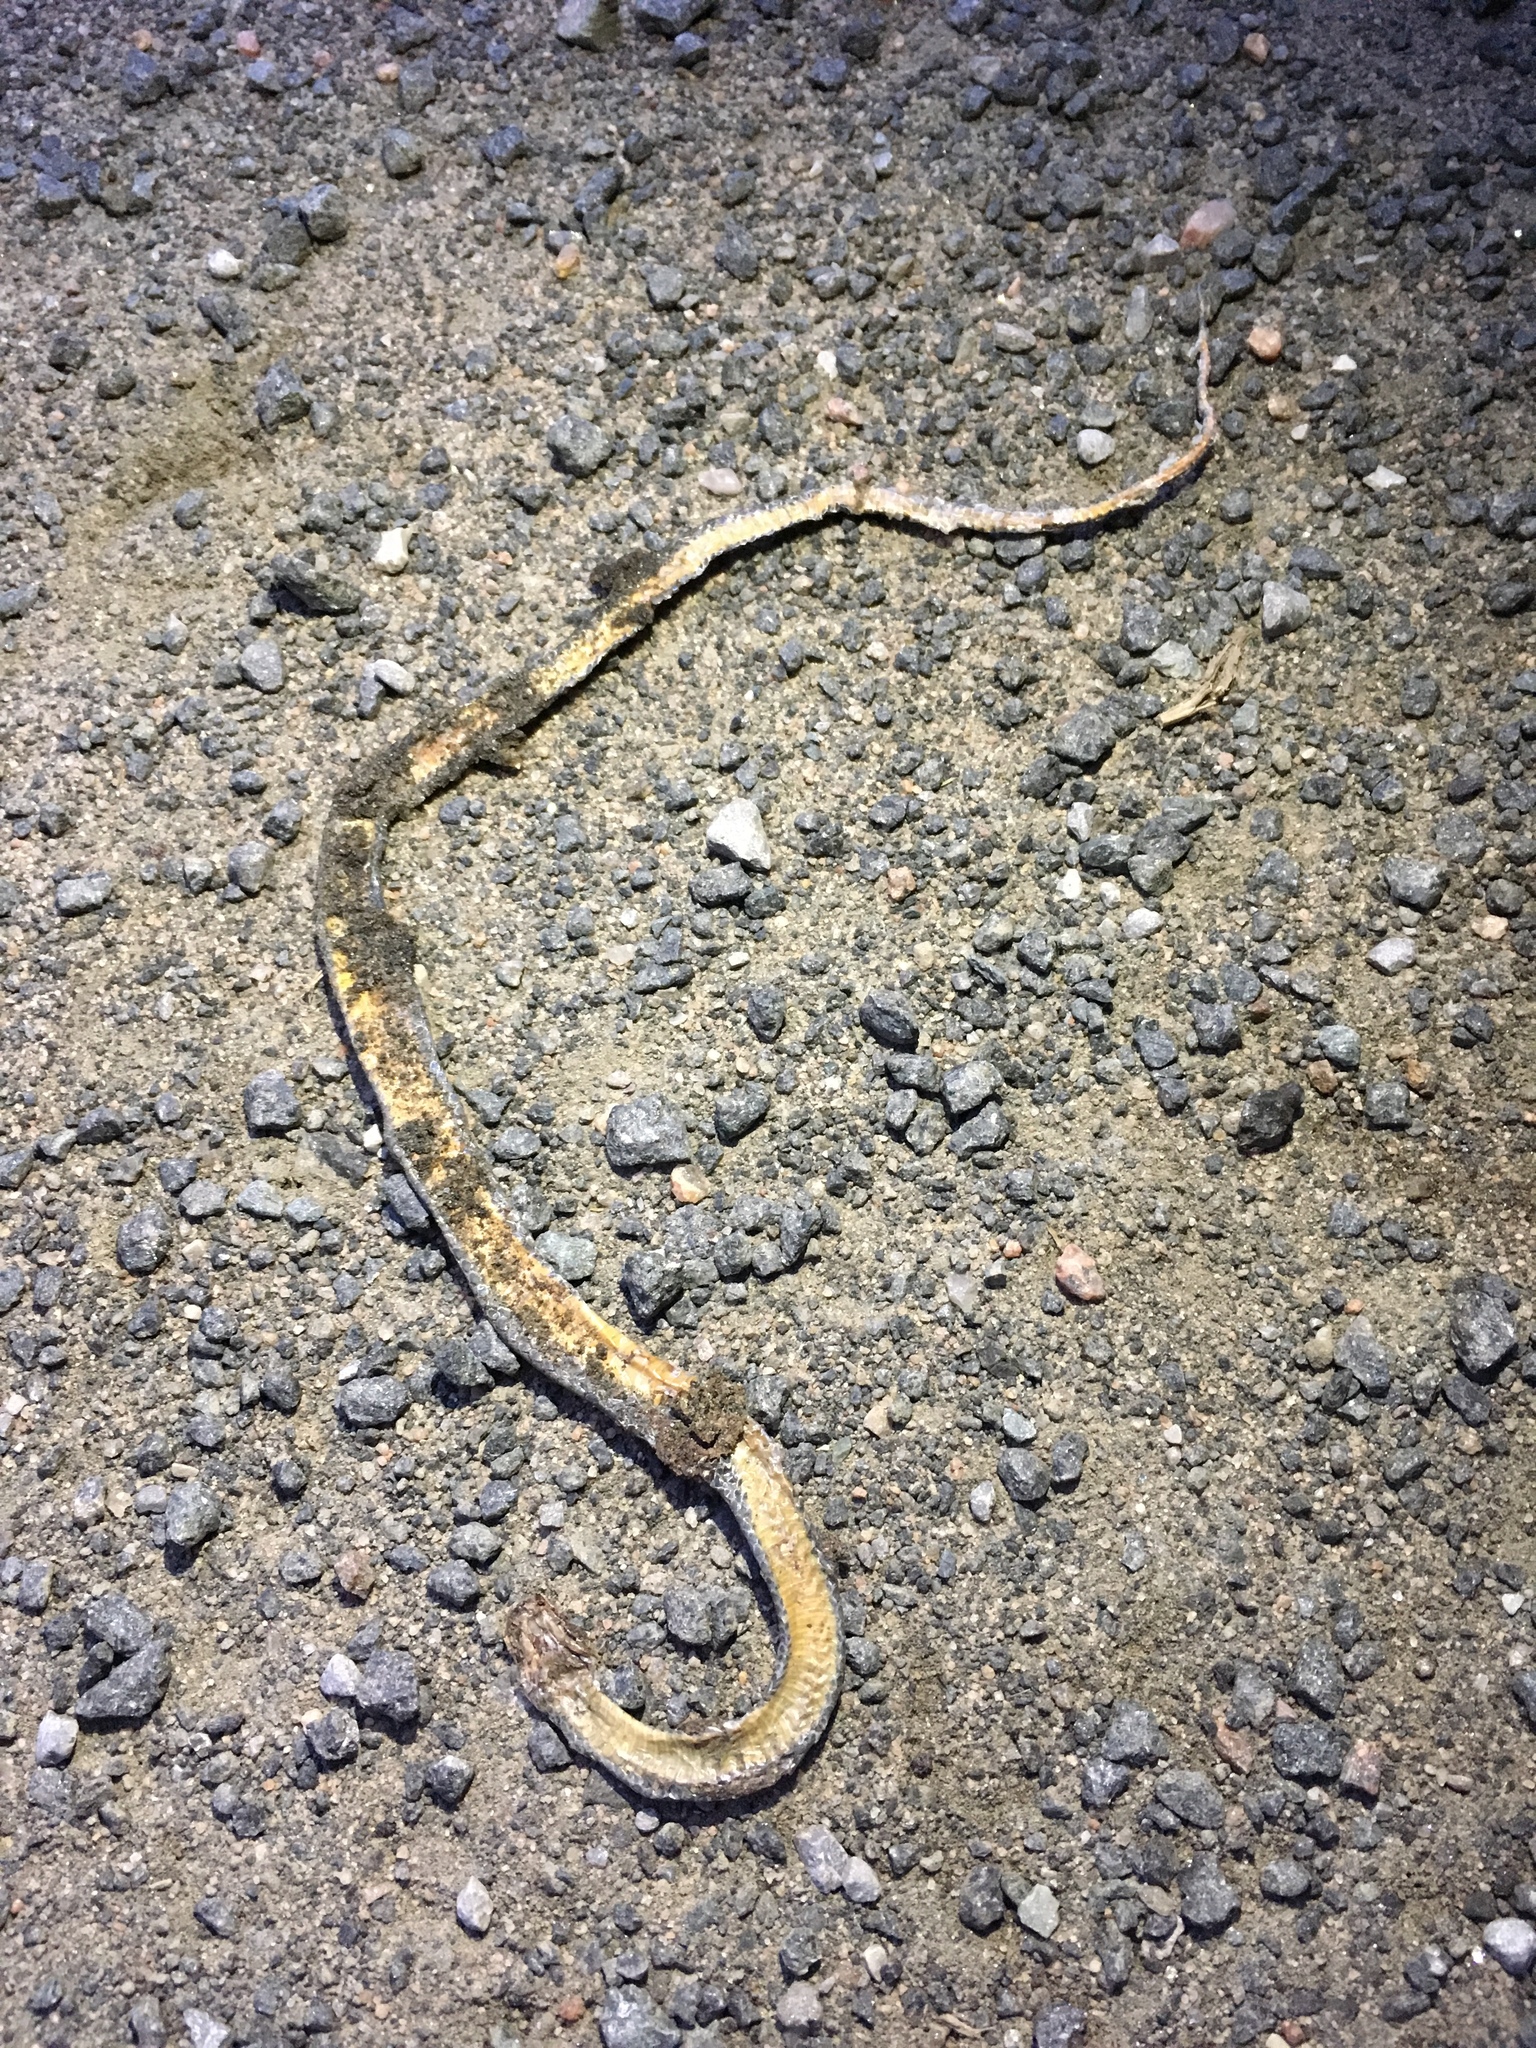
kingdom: Animalia
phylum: Chordata
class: Squamata
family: Colubridae
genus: Diadophis
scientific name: Diadophis punctatus
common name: Ringneck snake
